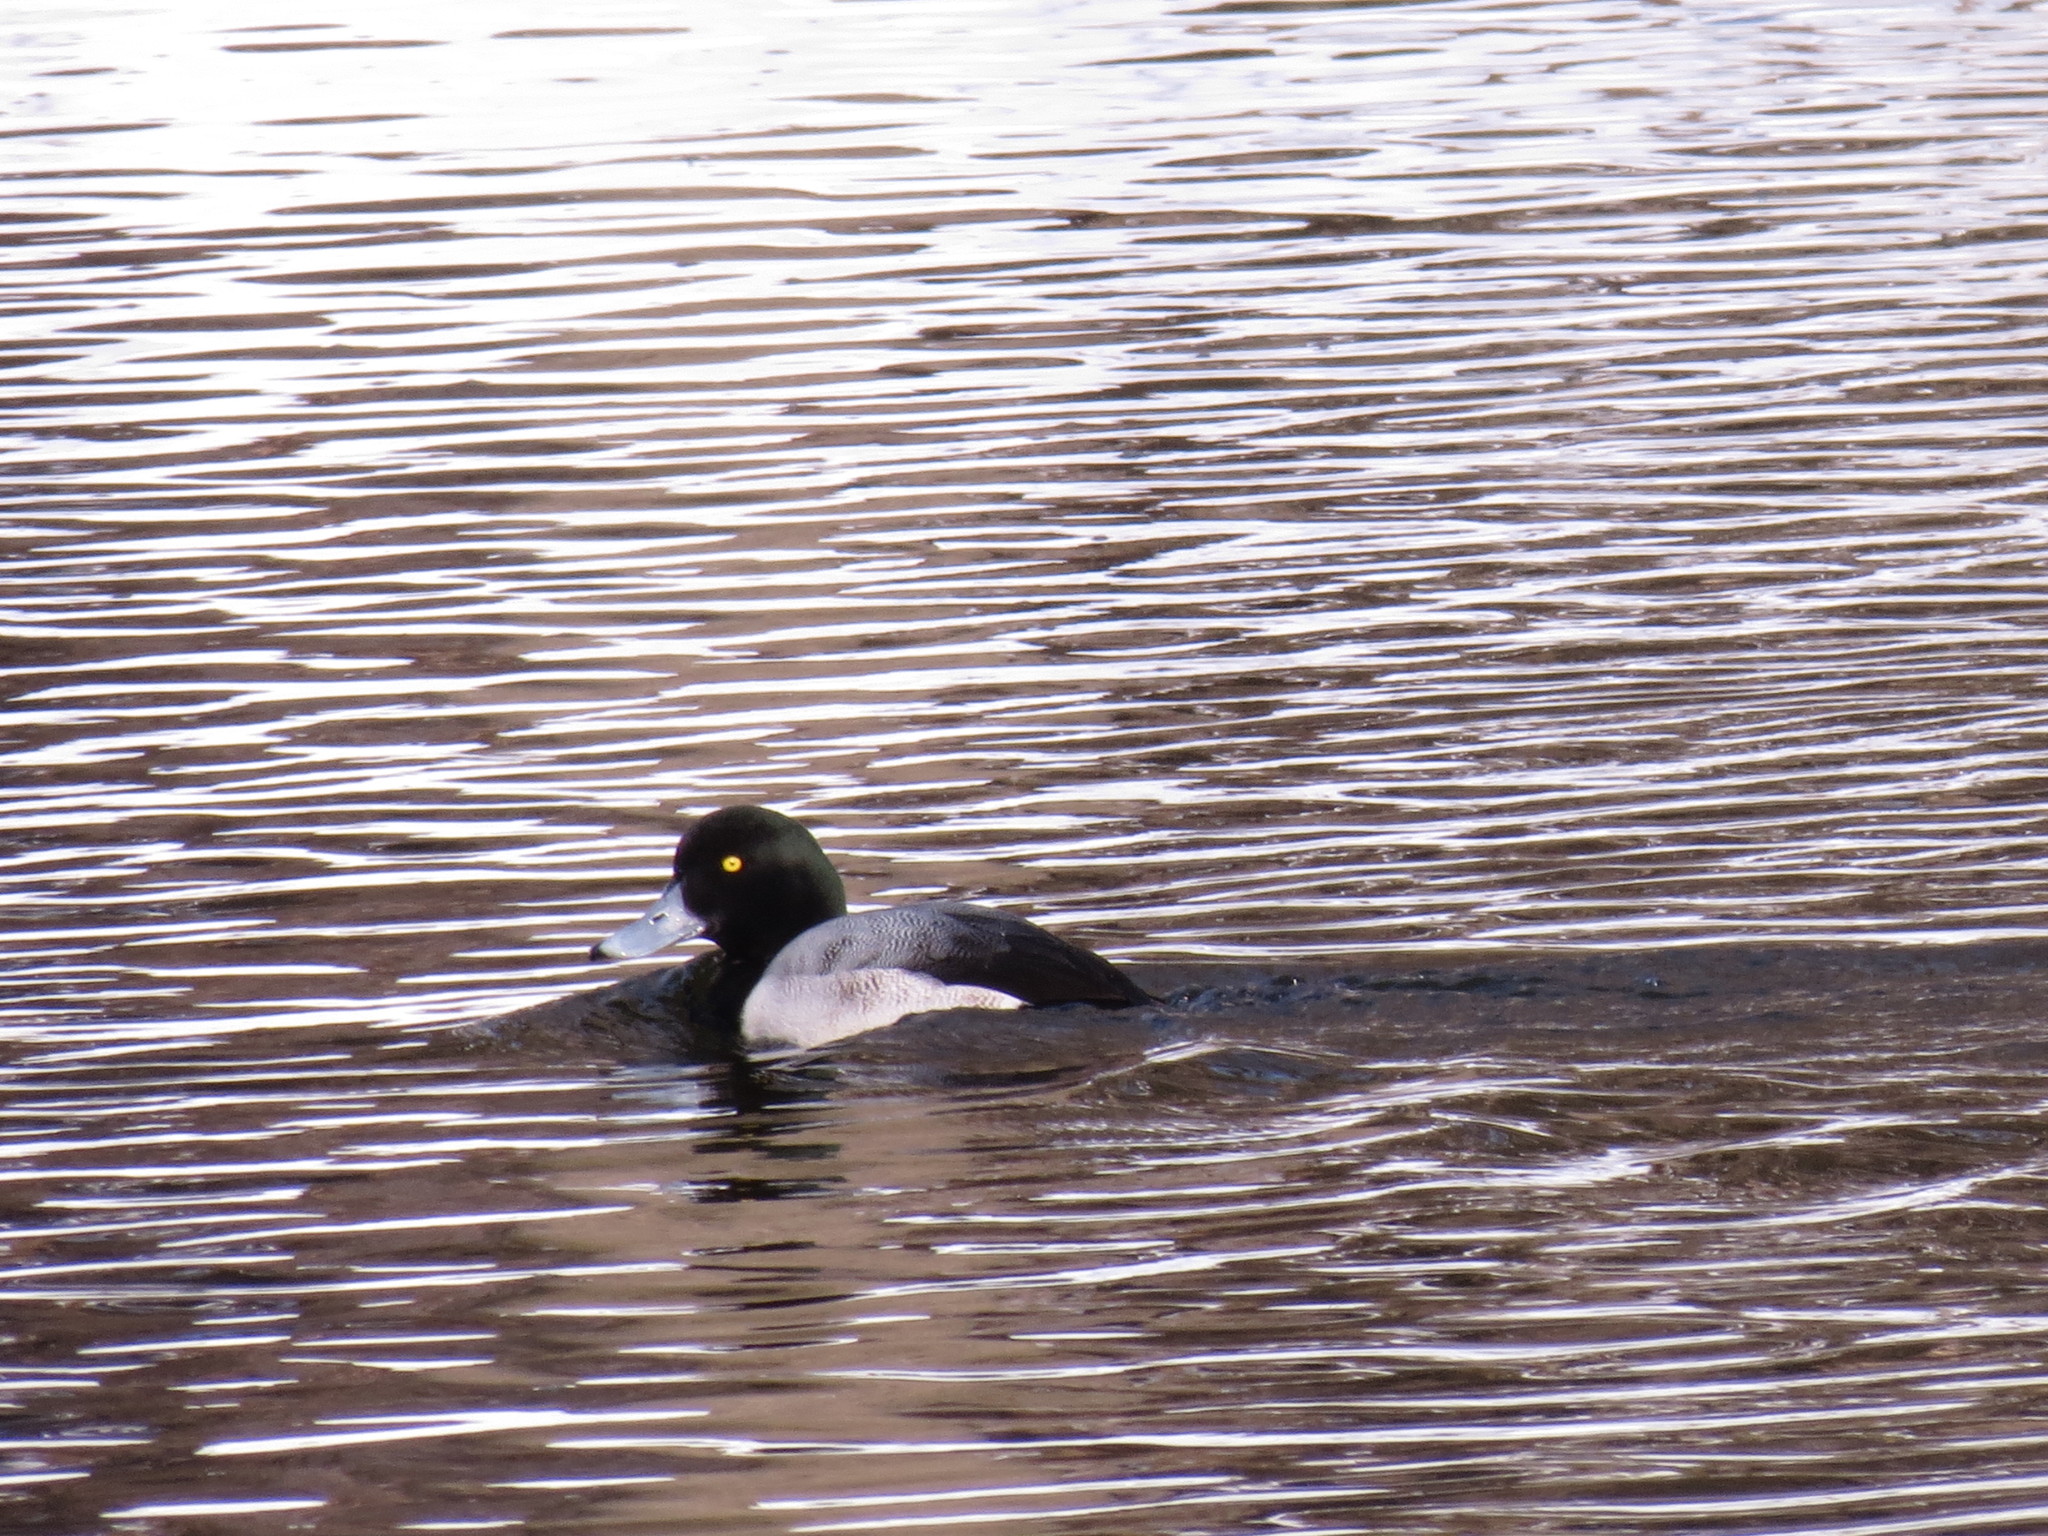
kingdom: Animalia
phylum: Chordata
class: Aves
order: Anseriformes
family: Anatidae
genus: Aythya
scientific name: Aythya marila
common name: Greater scaup
